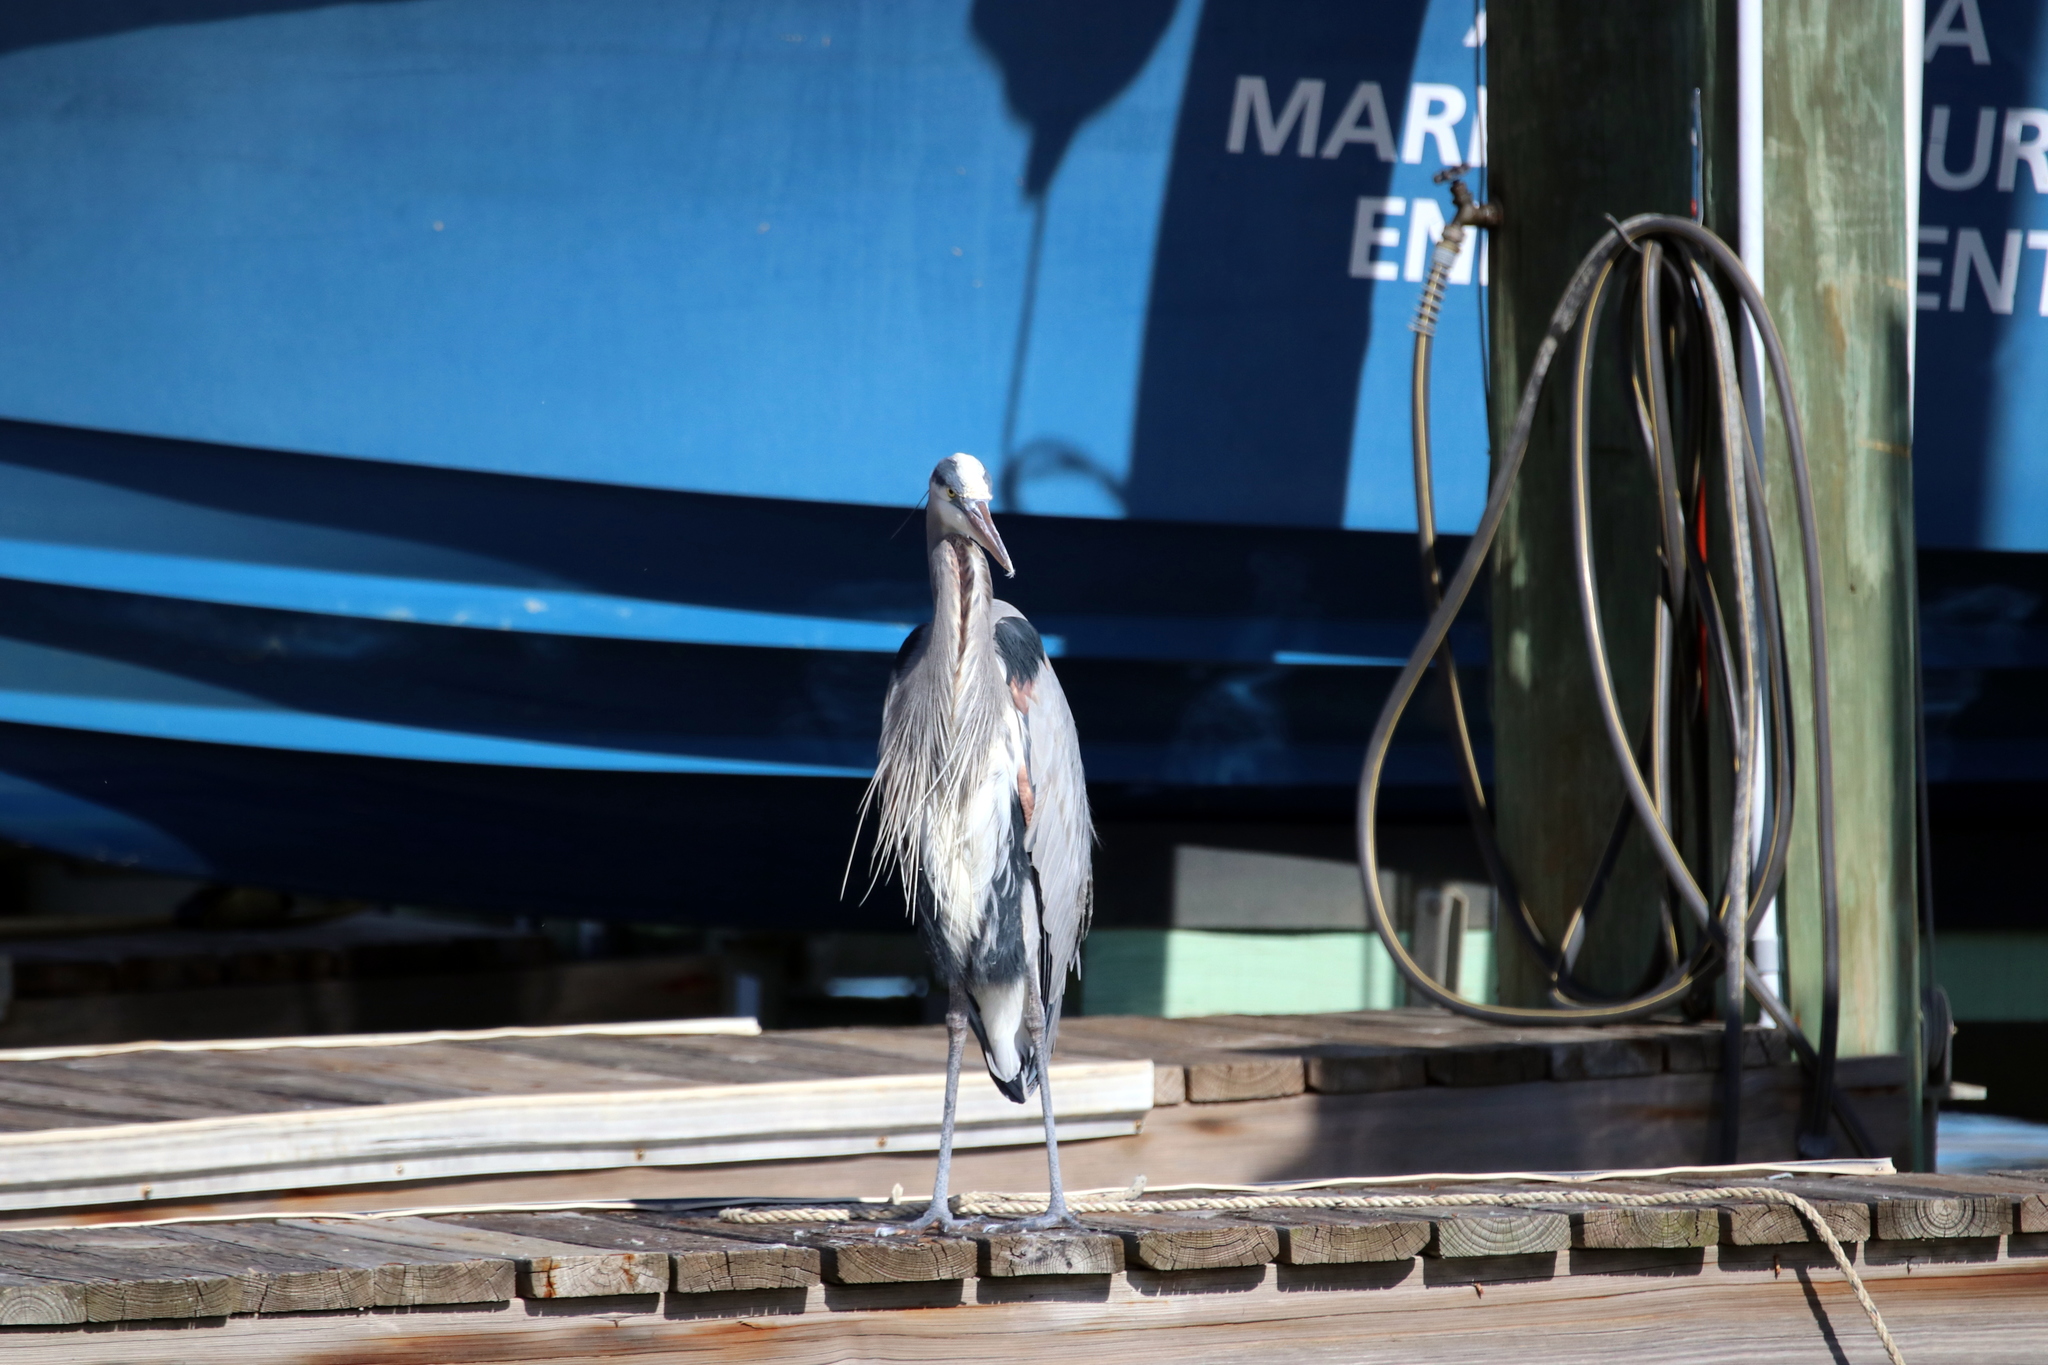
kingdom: Animalia
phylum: Chordata
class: Aves
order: Pelecaniformes
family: Ardeidae
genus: Ardea
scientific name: Ardea herodias
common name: Great blue heron
